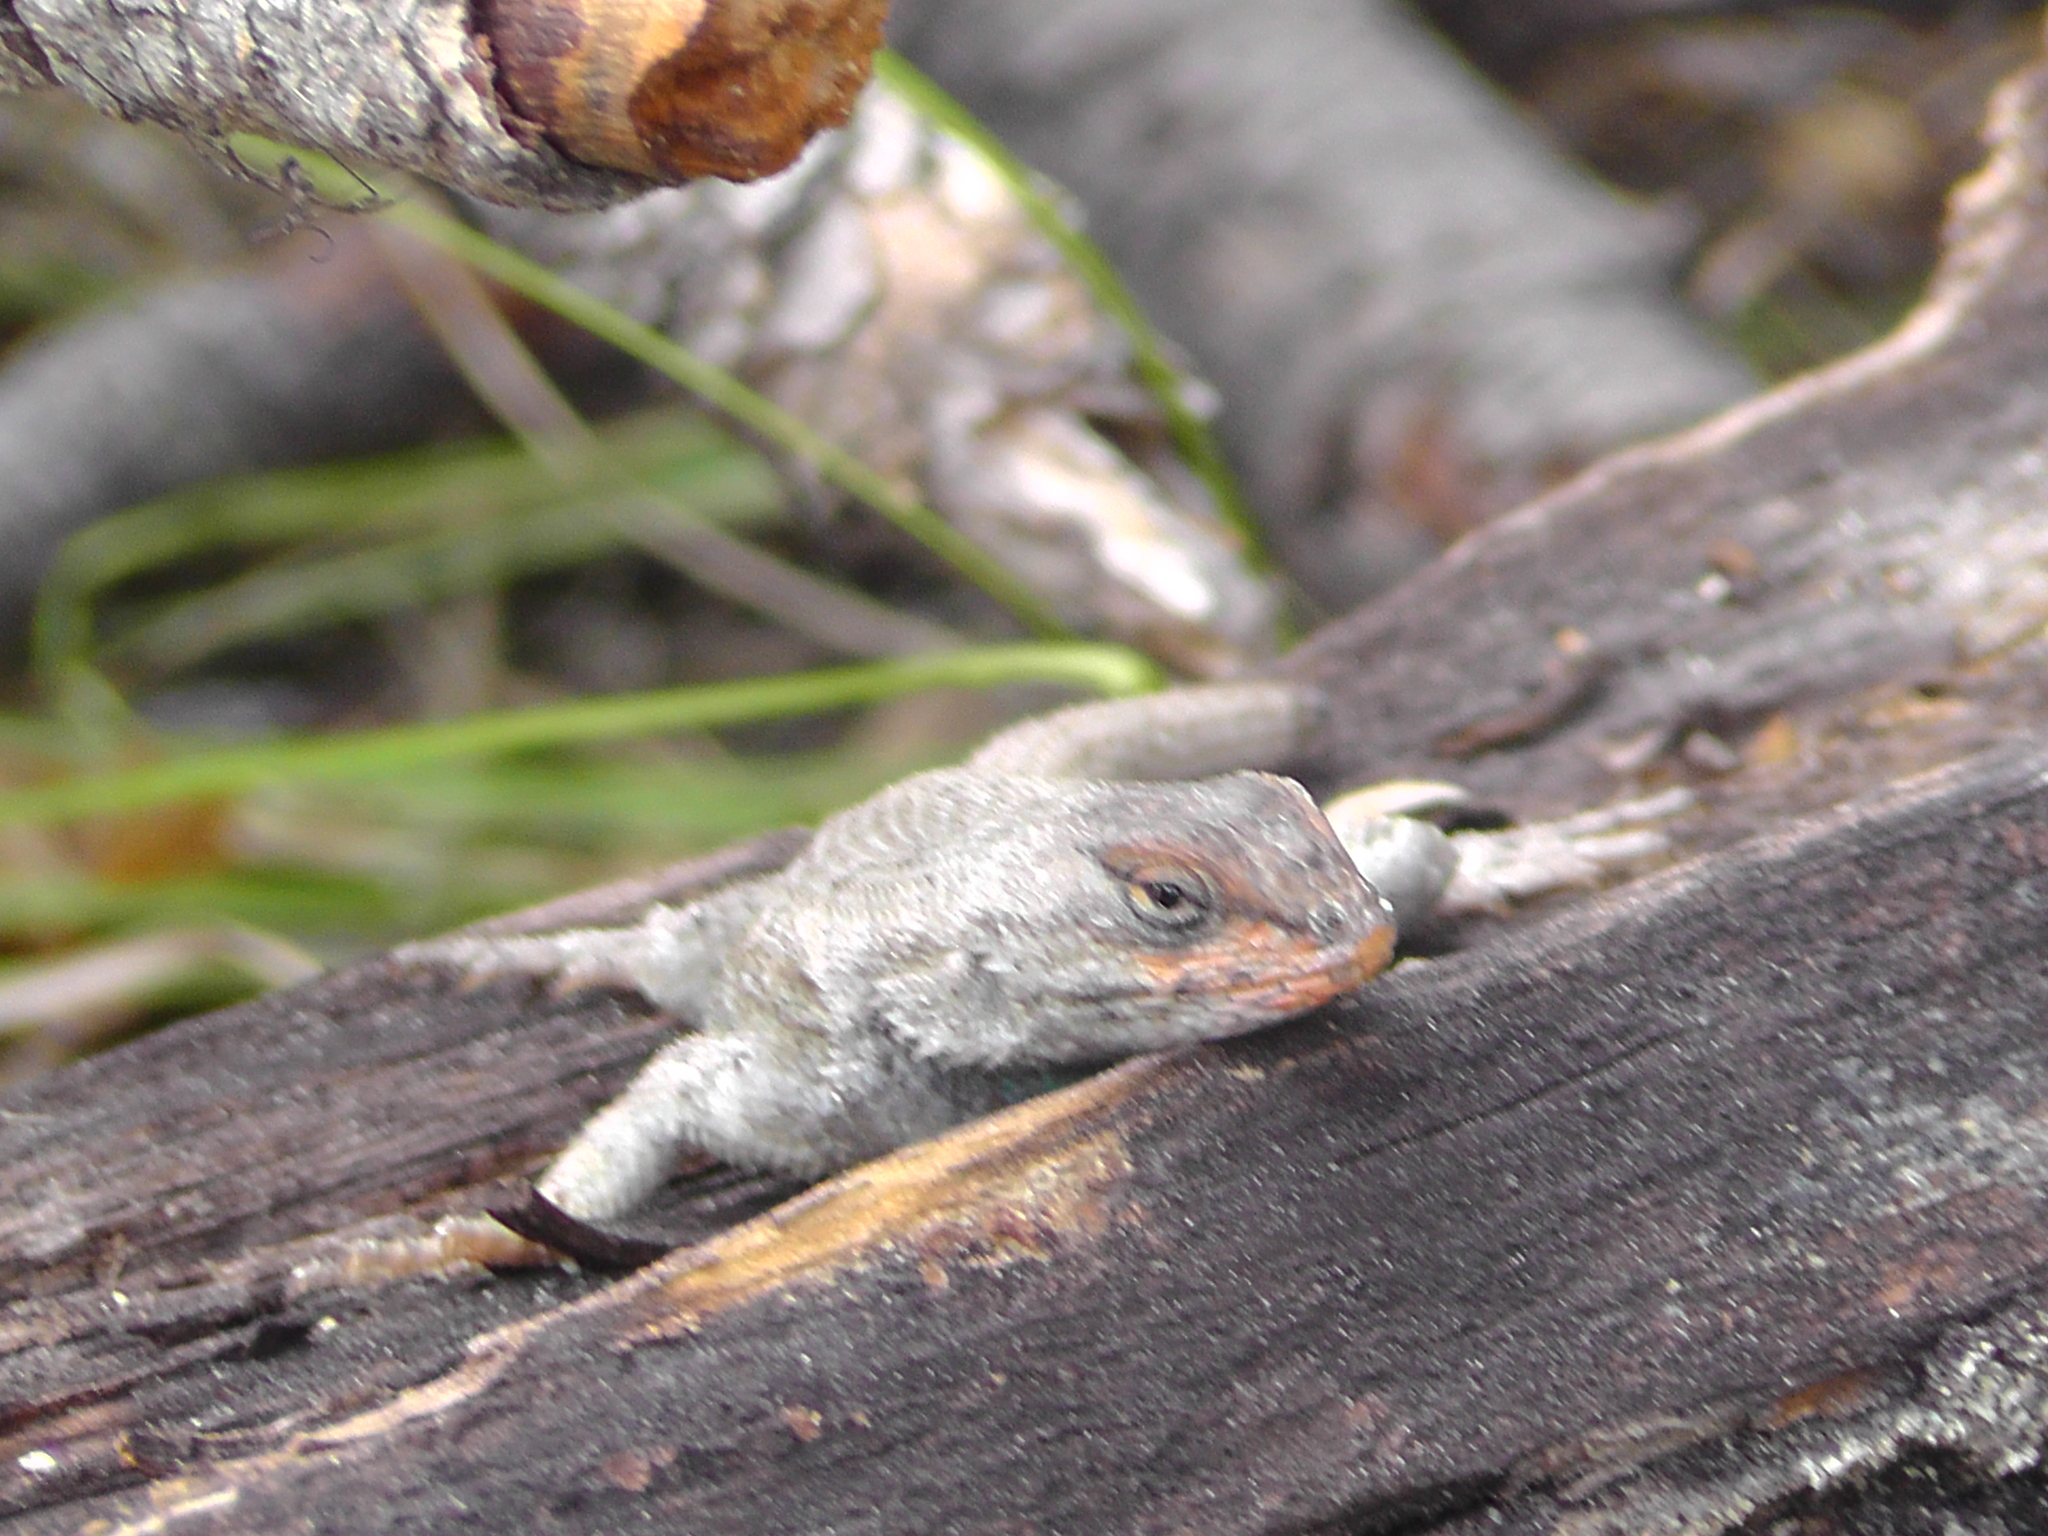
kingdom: Animalia
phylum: Chordata
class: Squamata
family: Phrynosomatidae
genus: Sceloporus
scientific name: Sceloporus consobrinus
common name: Southern prairie lizard
